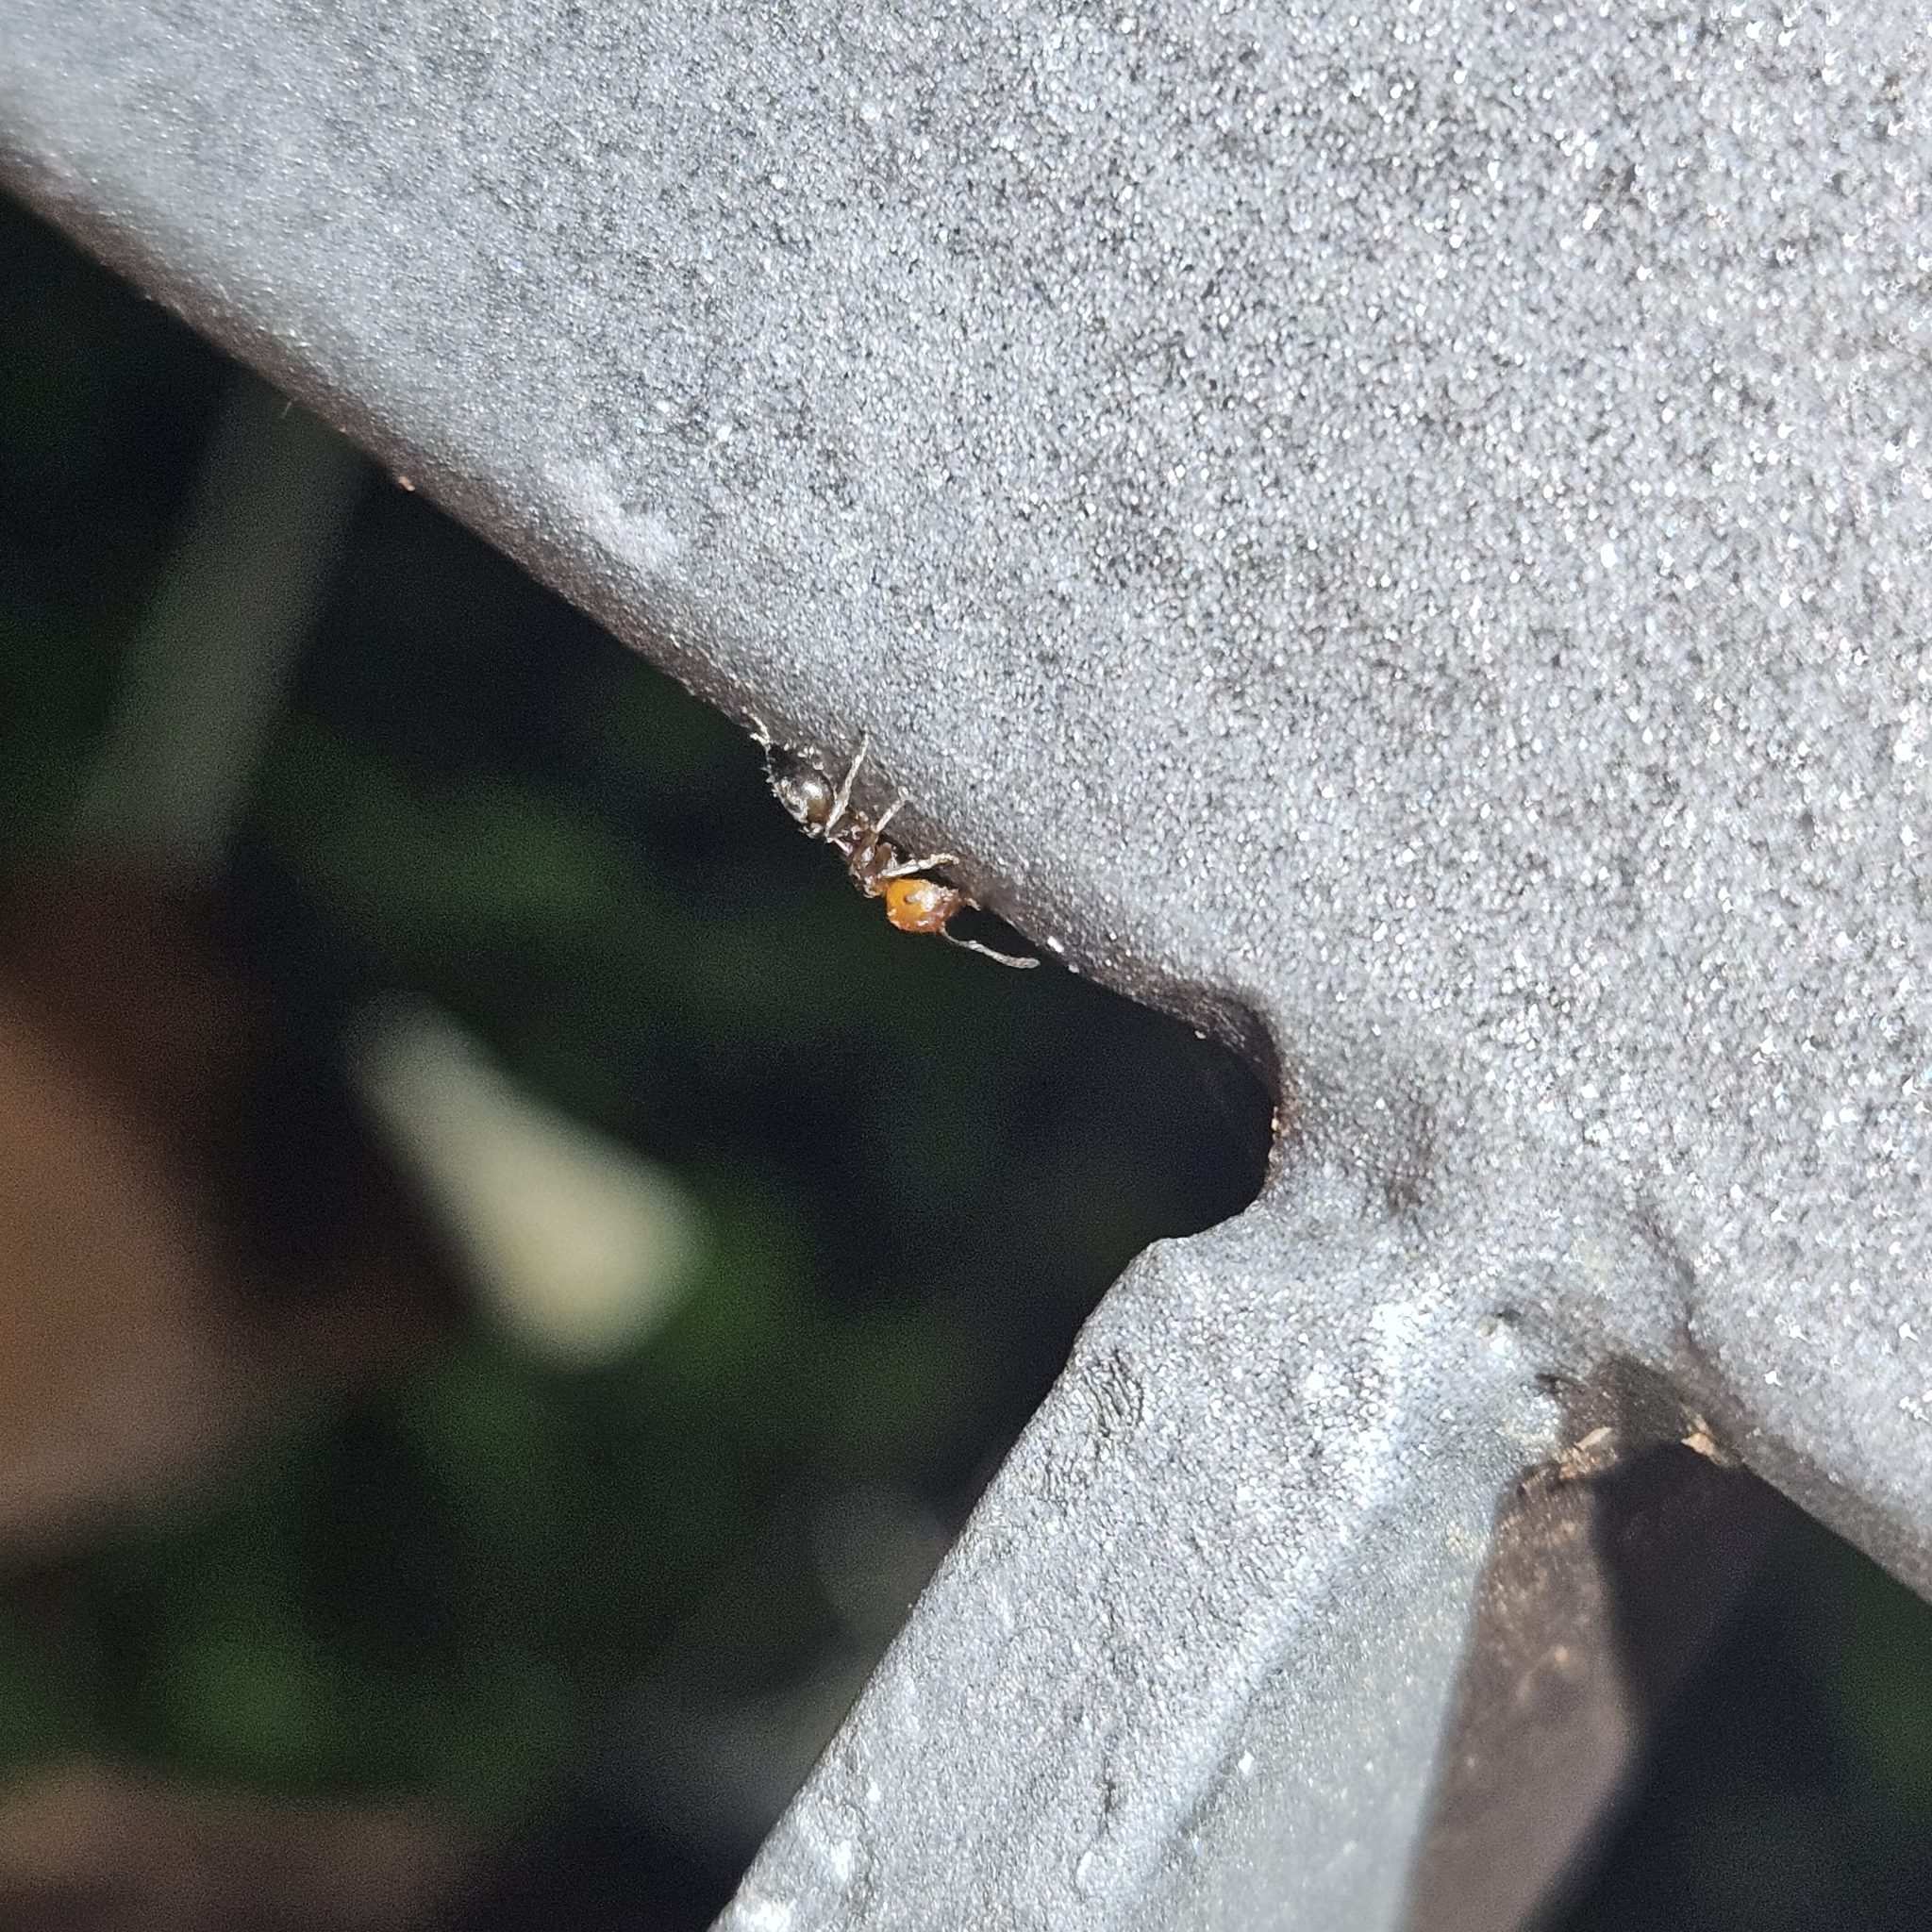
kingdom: Animalia
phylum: Arthropoda
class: Insecta
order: Hymenoptera
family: Formicidae
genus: Crematogaster
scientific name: Crematogaster scutellaris
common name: Fourmi du liège
